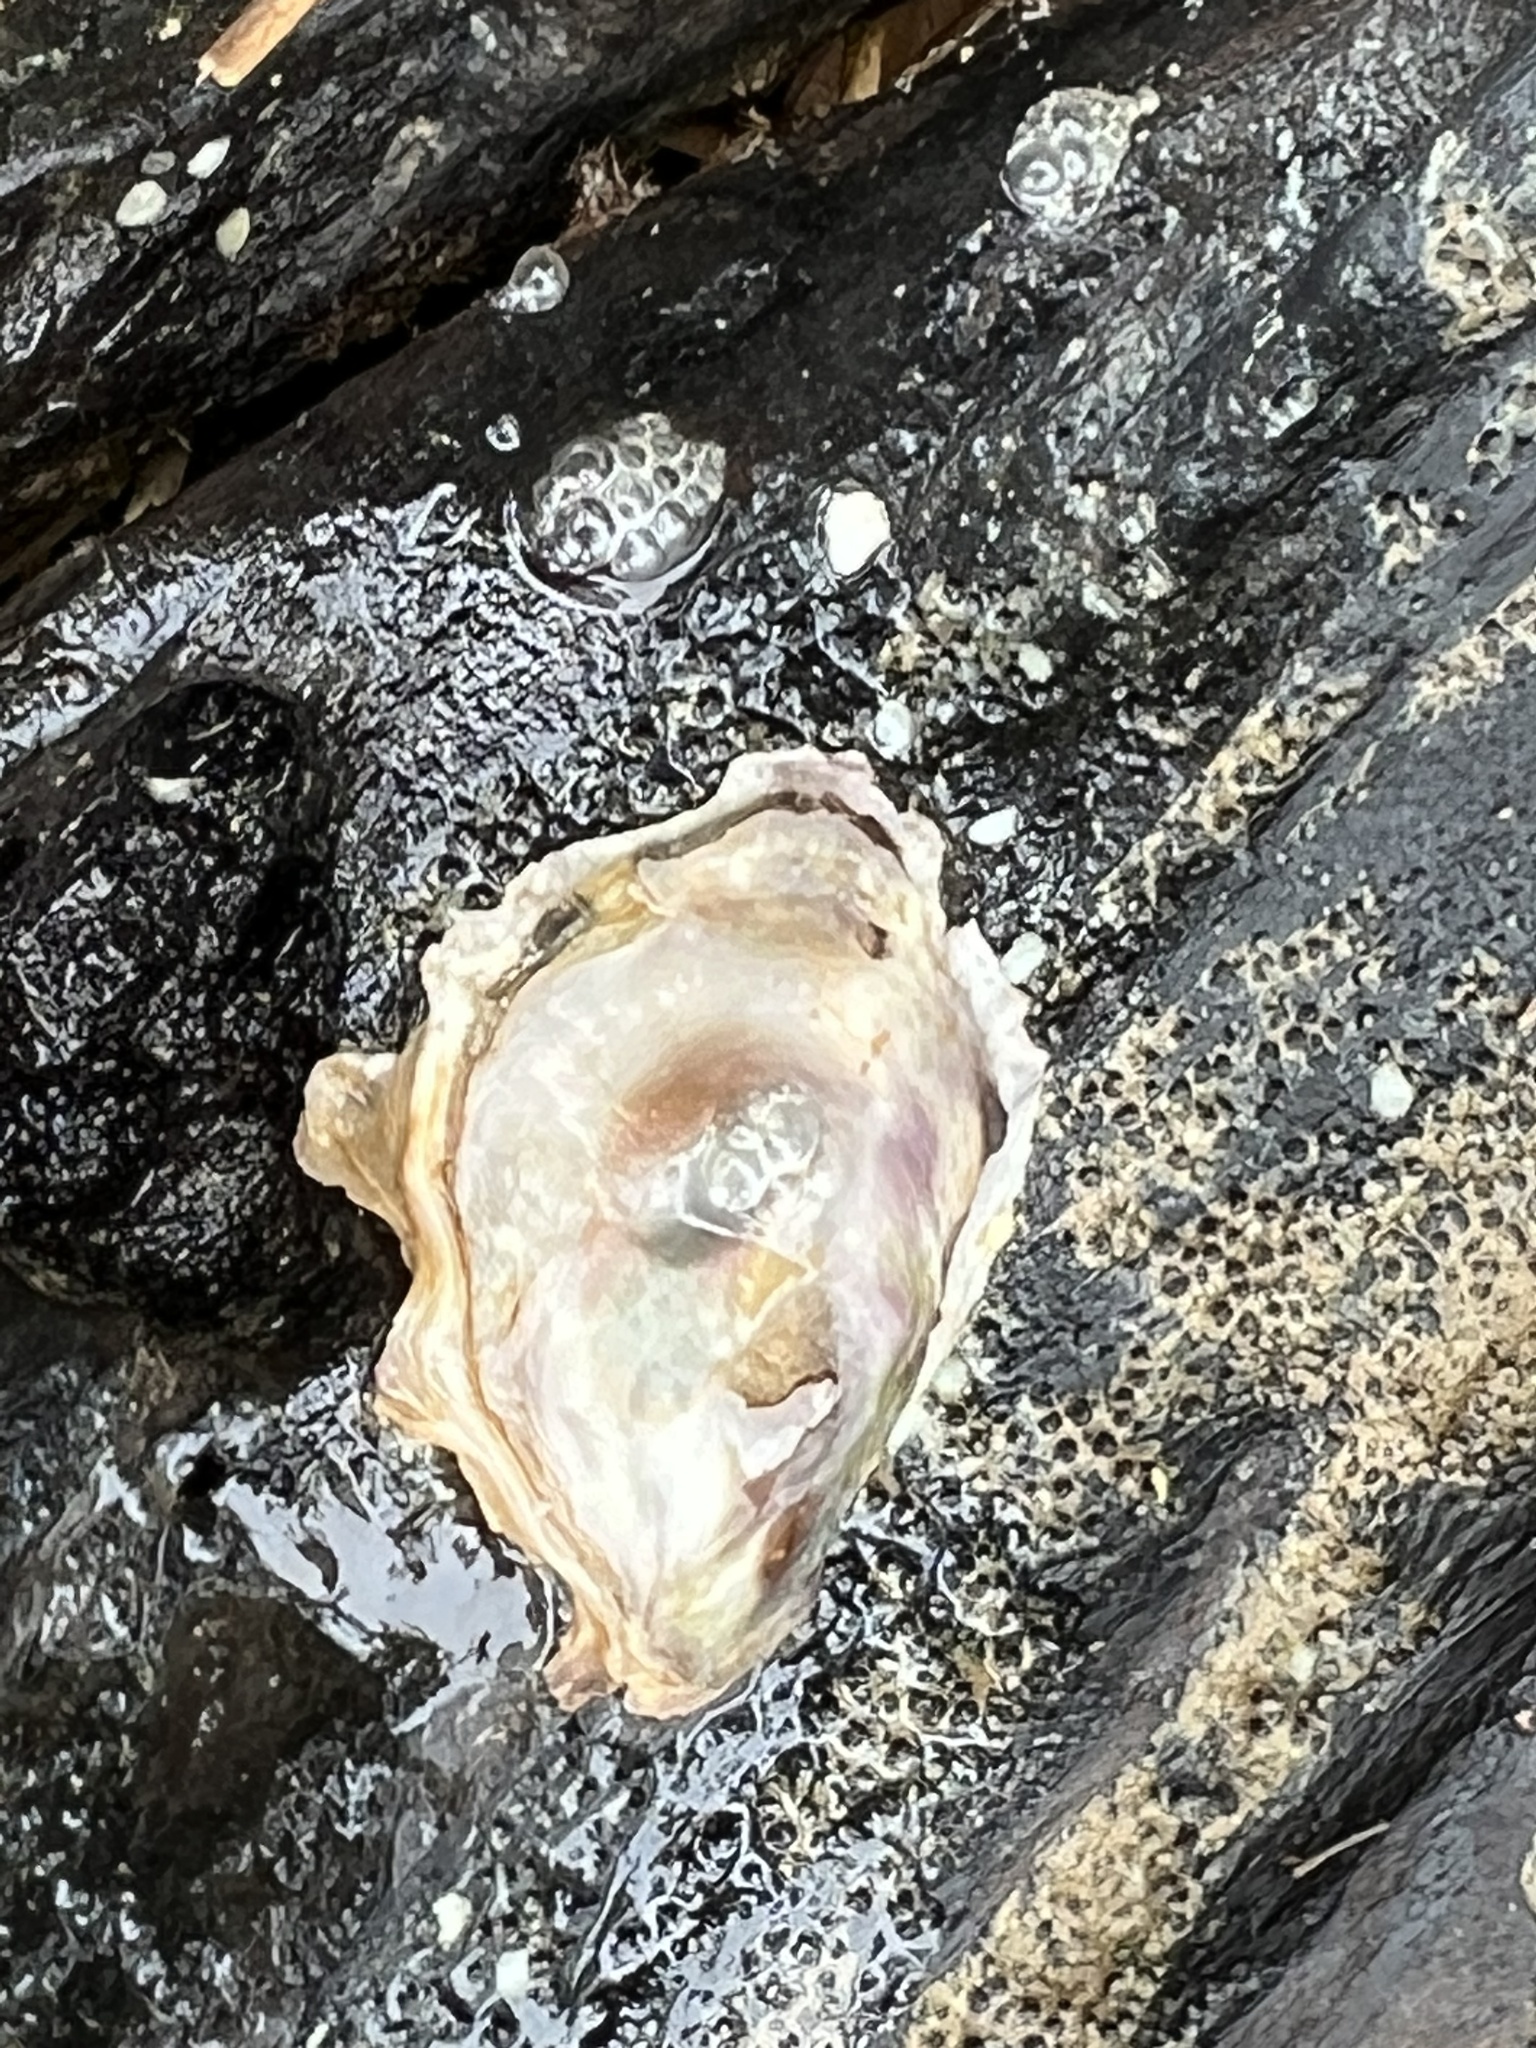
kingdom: Animalia
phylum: Mollusca
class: Bivalvia
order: Ostreida
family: Ostreidae
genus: Saccostrea
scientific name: Saccostrea glomerata
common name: Sydney cupped oyster
